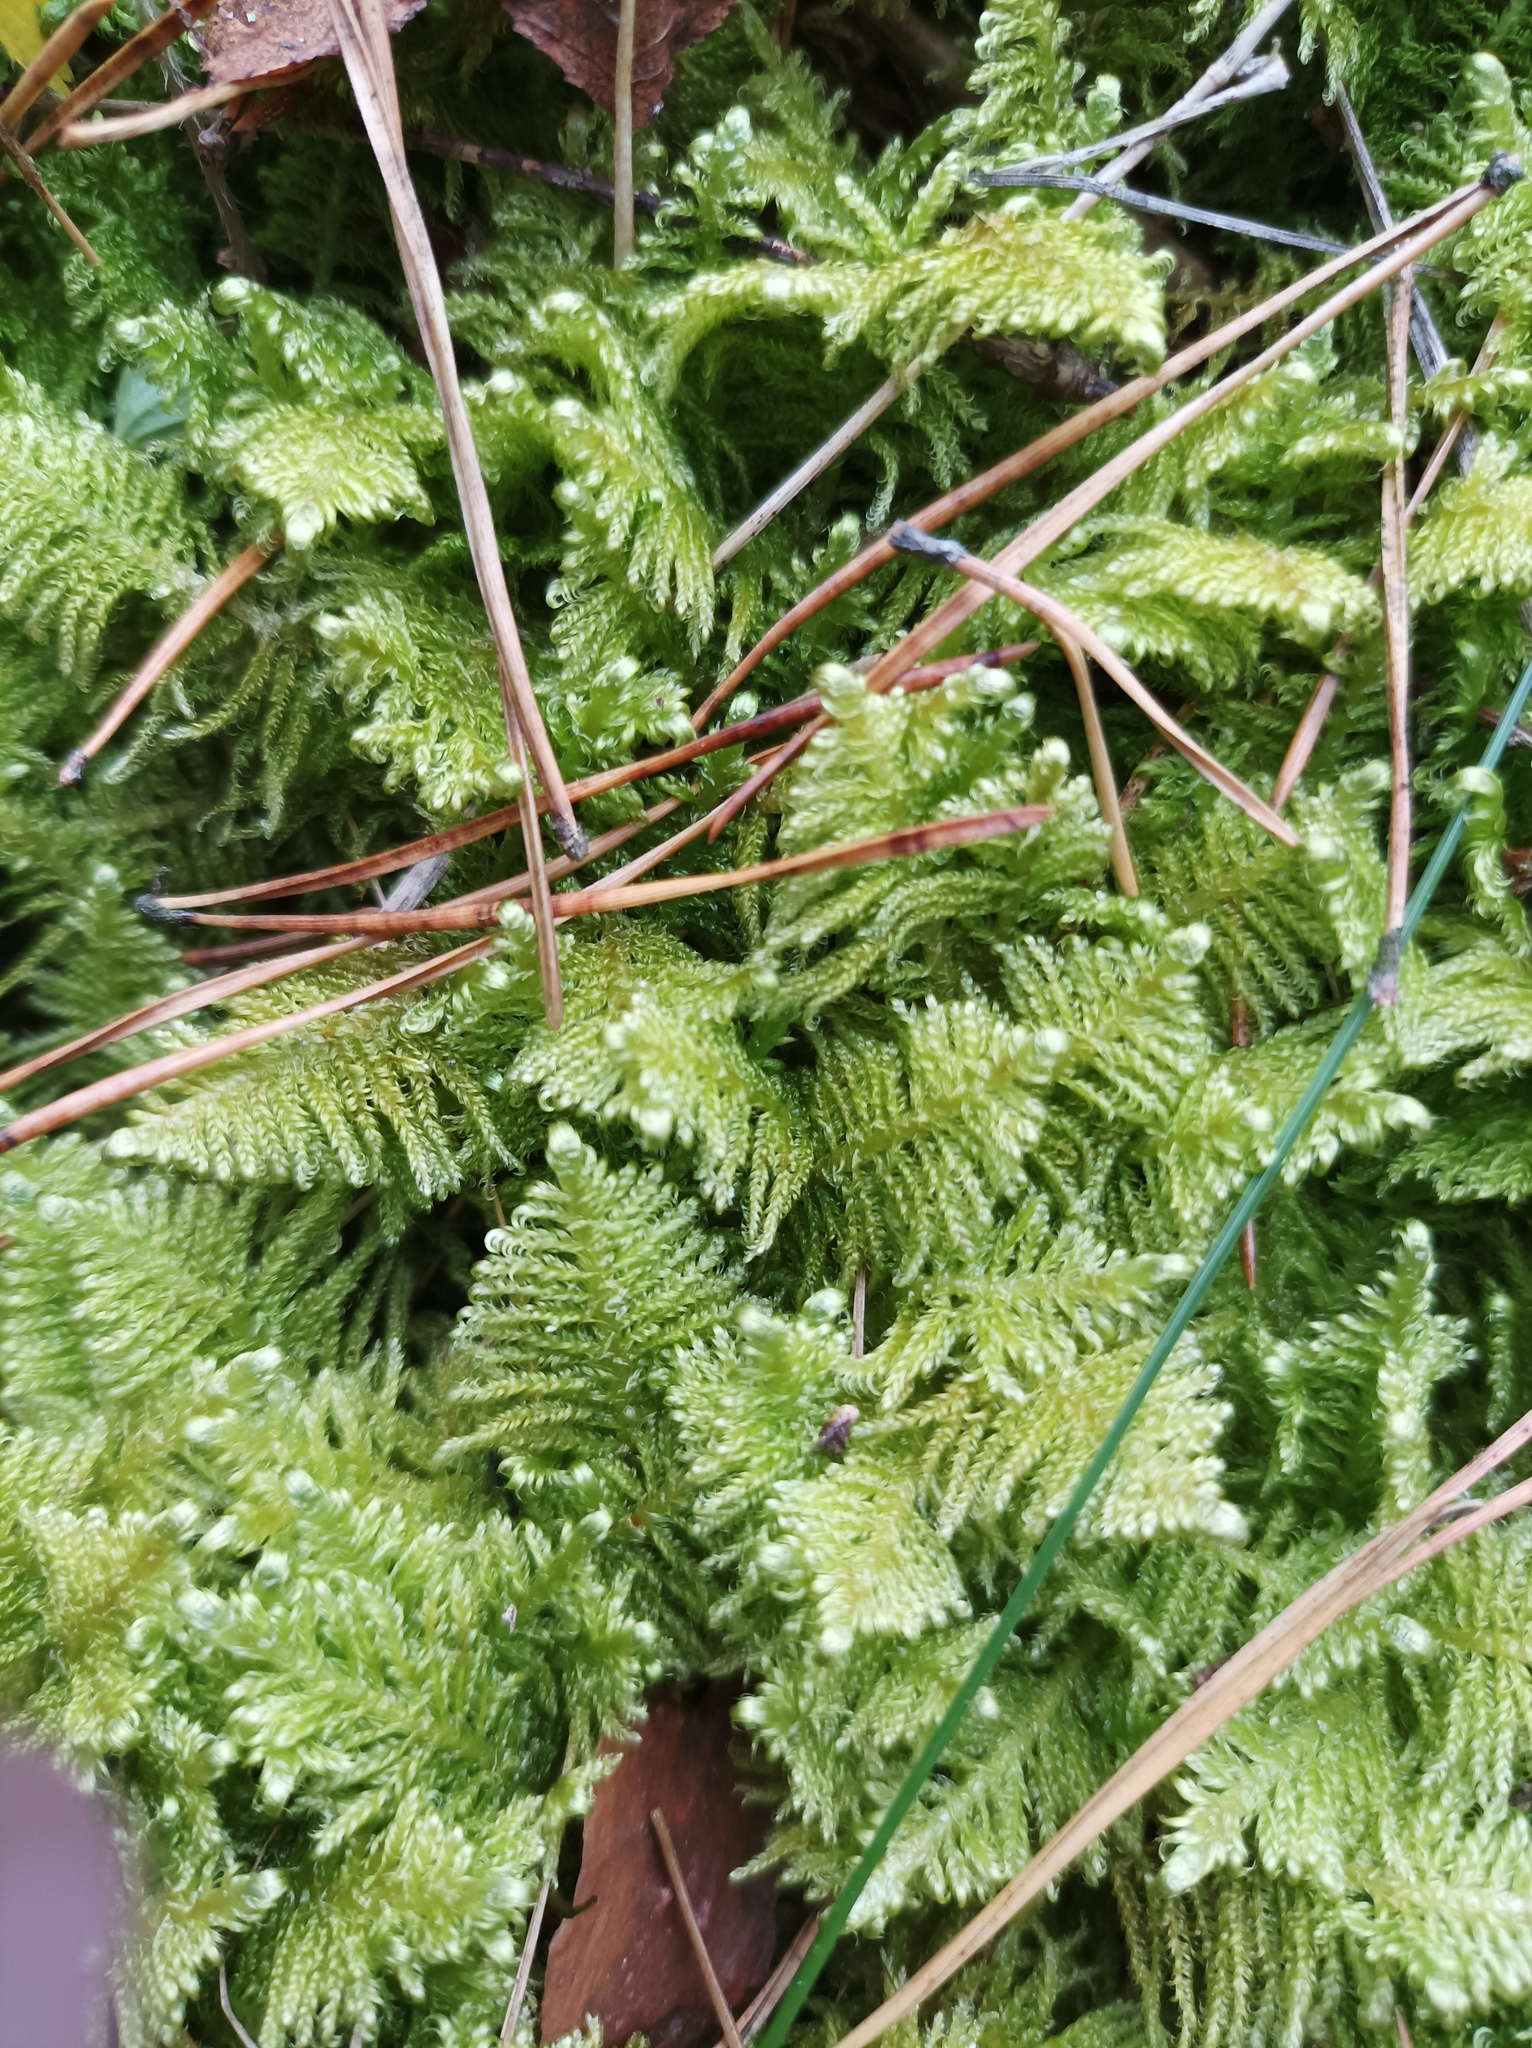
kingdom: Plantae
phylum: Bryophyta
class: Bryopsida
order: Hypnales
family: Pylaisiaceae
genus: Ptilium
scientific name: Ptilium crista-castrensis
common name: Knight's plume moss
